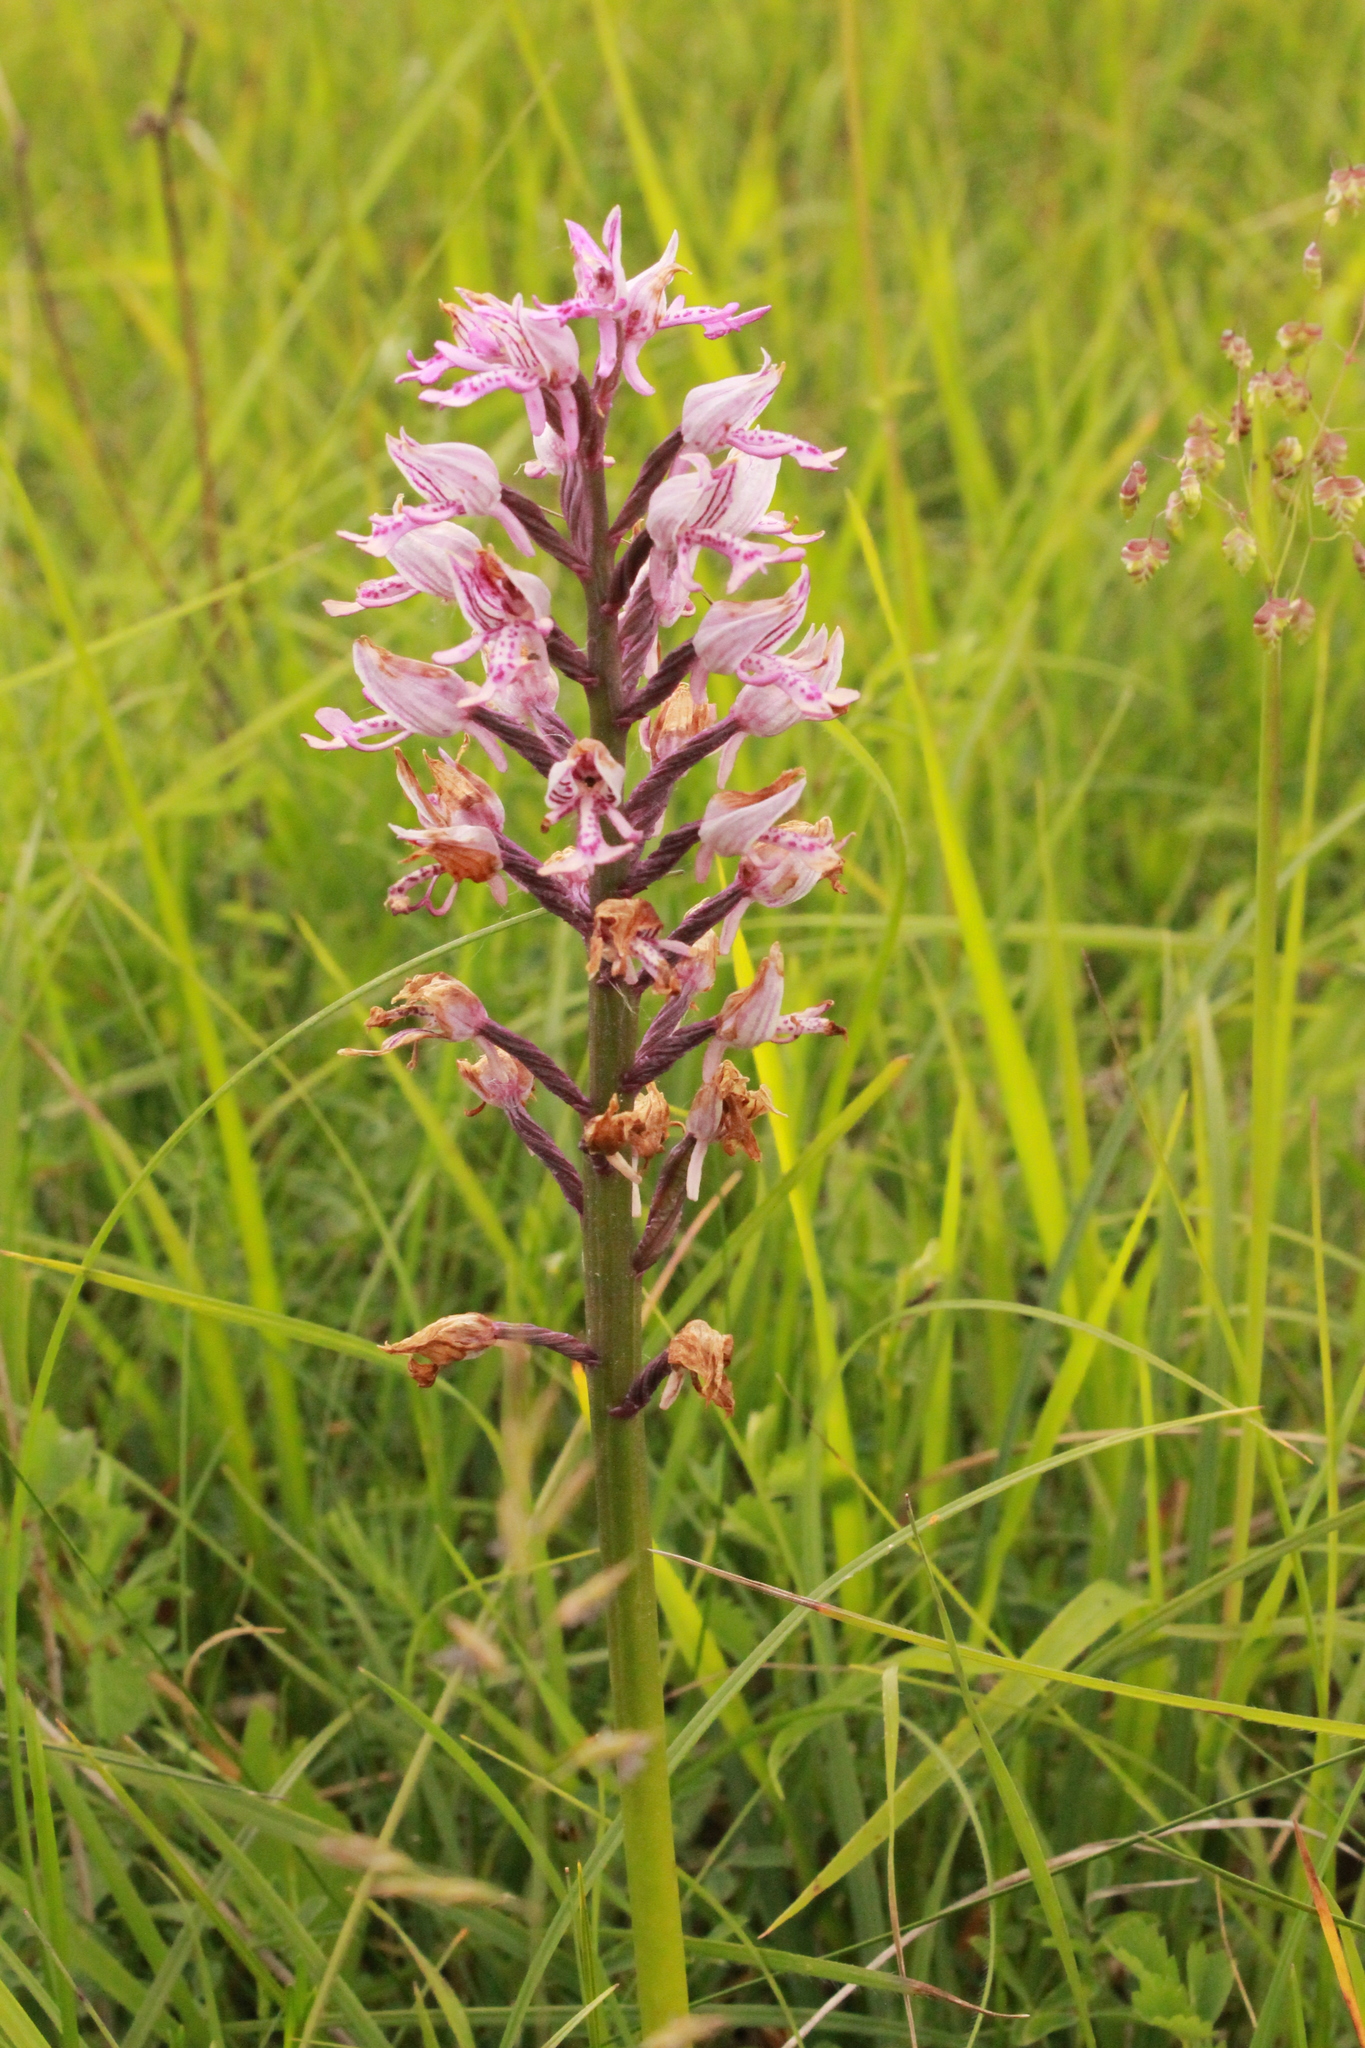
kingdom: Plantae
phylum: Tracheophyta
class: Liliopsida
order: Asparagales
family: Orchidaceae
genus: Orchis
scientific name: Orchis militaris
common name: Military orchid
